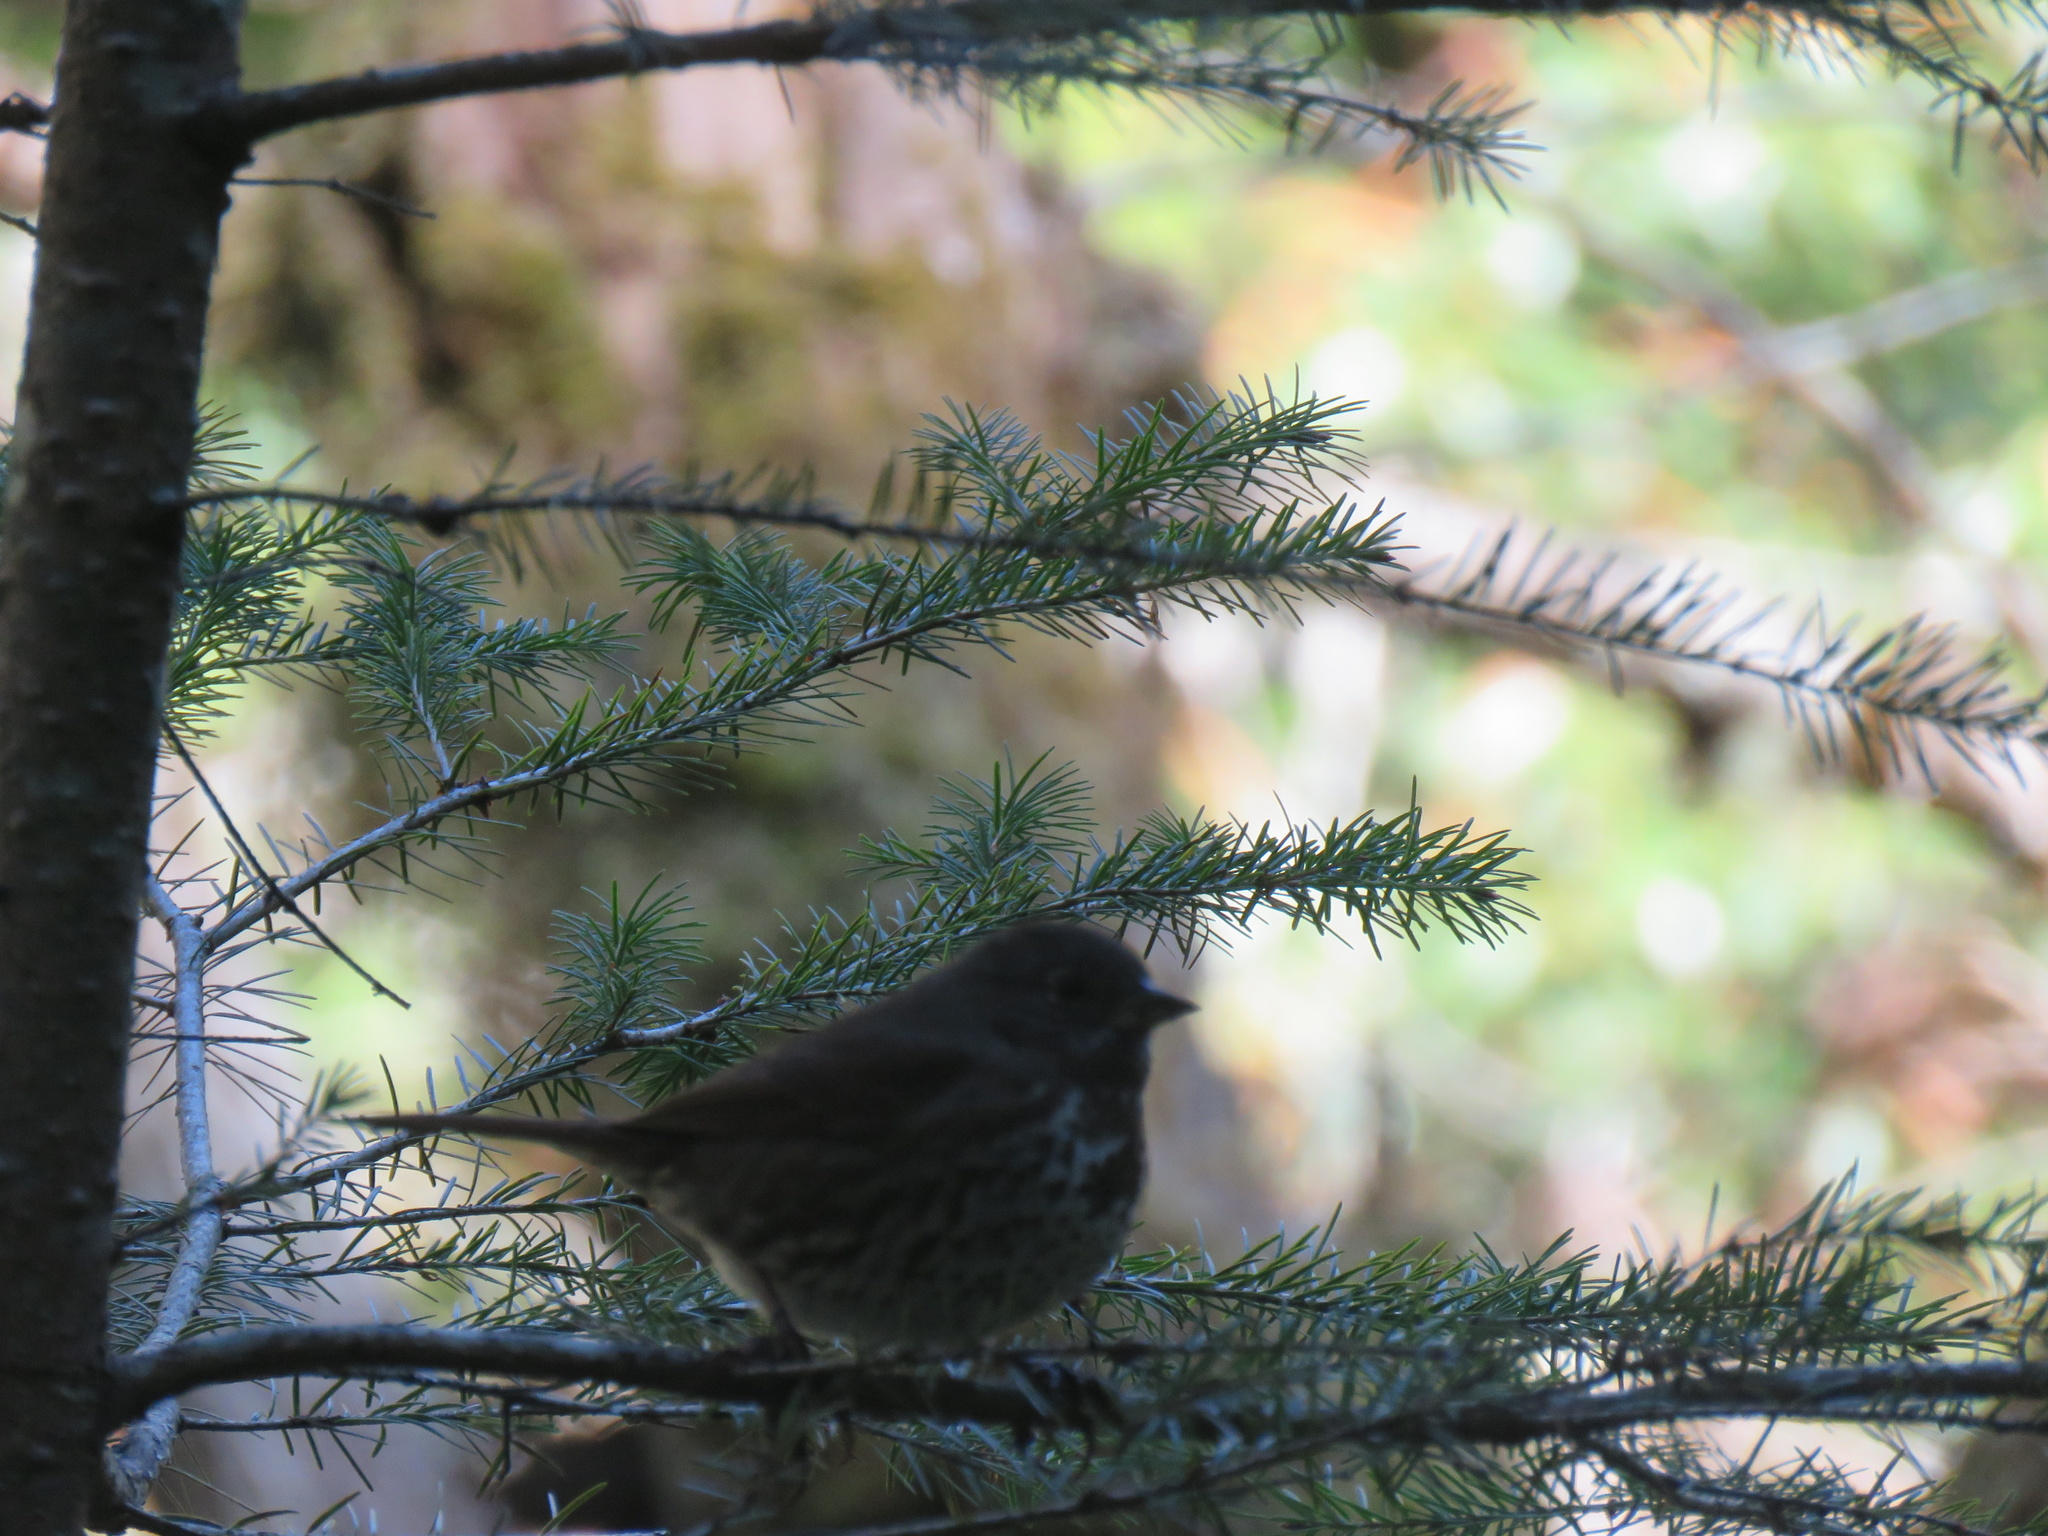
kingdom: Animalia
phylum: Chordata
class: Aves
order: Passeriformes
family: Passerellidae
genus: Passerella
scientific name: Passerella iliaca
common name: Fox sparrow
